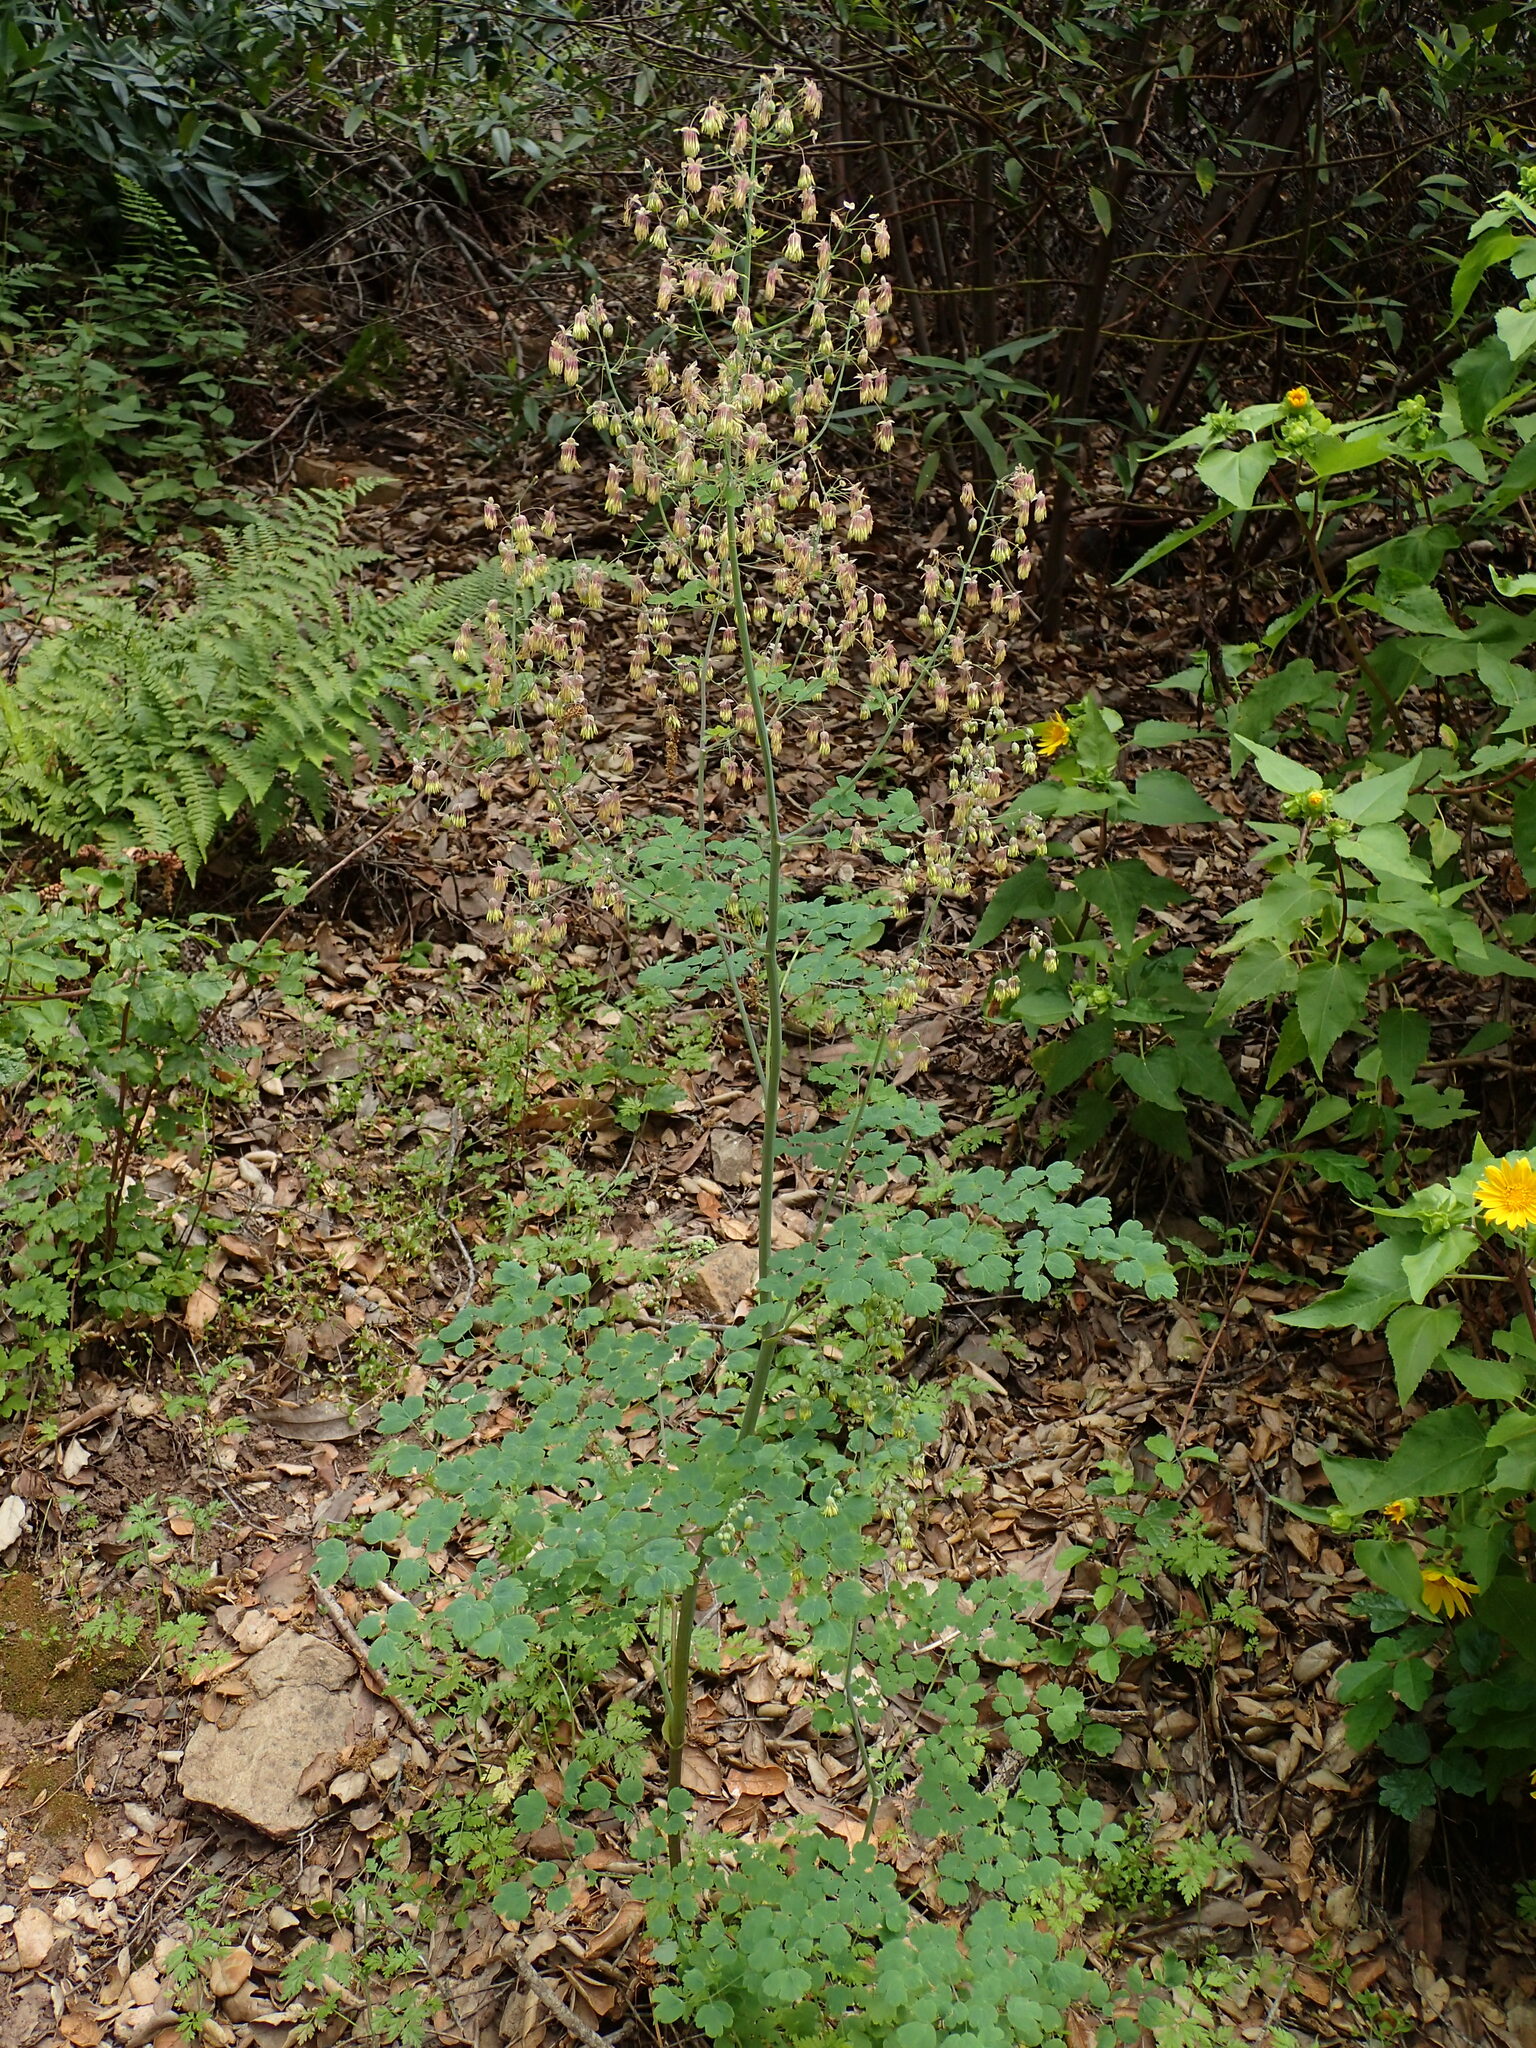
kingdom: Plantae
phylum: Tracheophyta
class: Magnoliopsida
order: Ranunculales
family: Ranunculaceae
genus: Thalictrum
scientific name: Thalictrum fendleri
